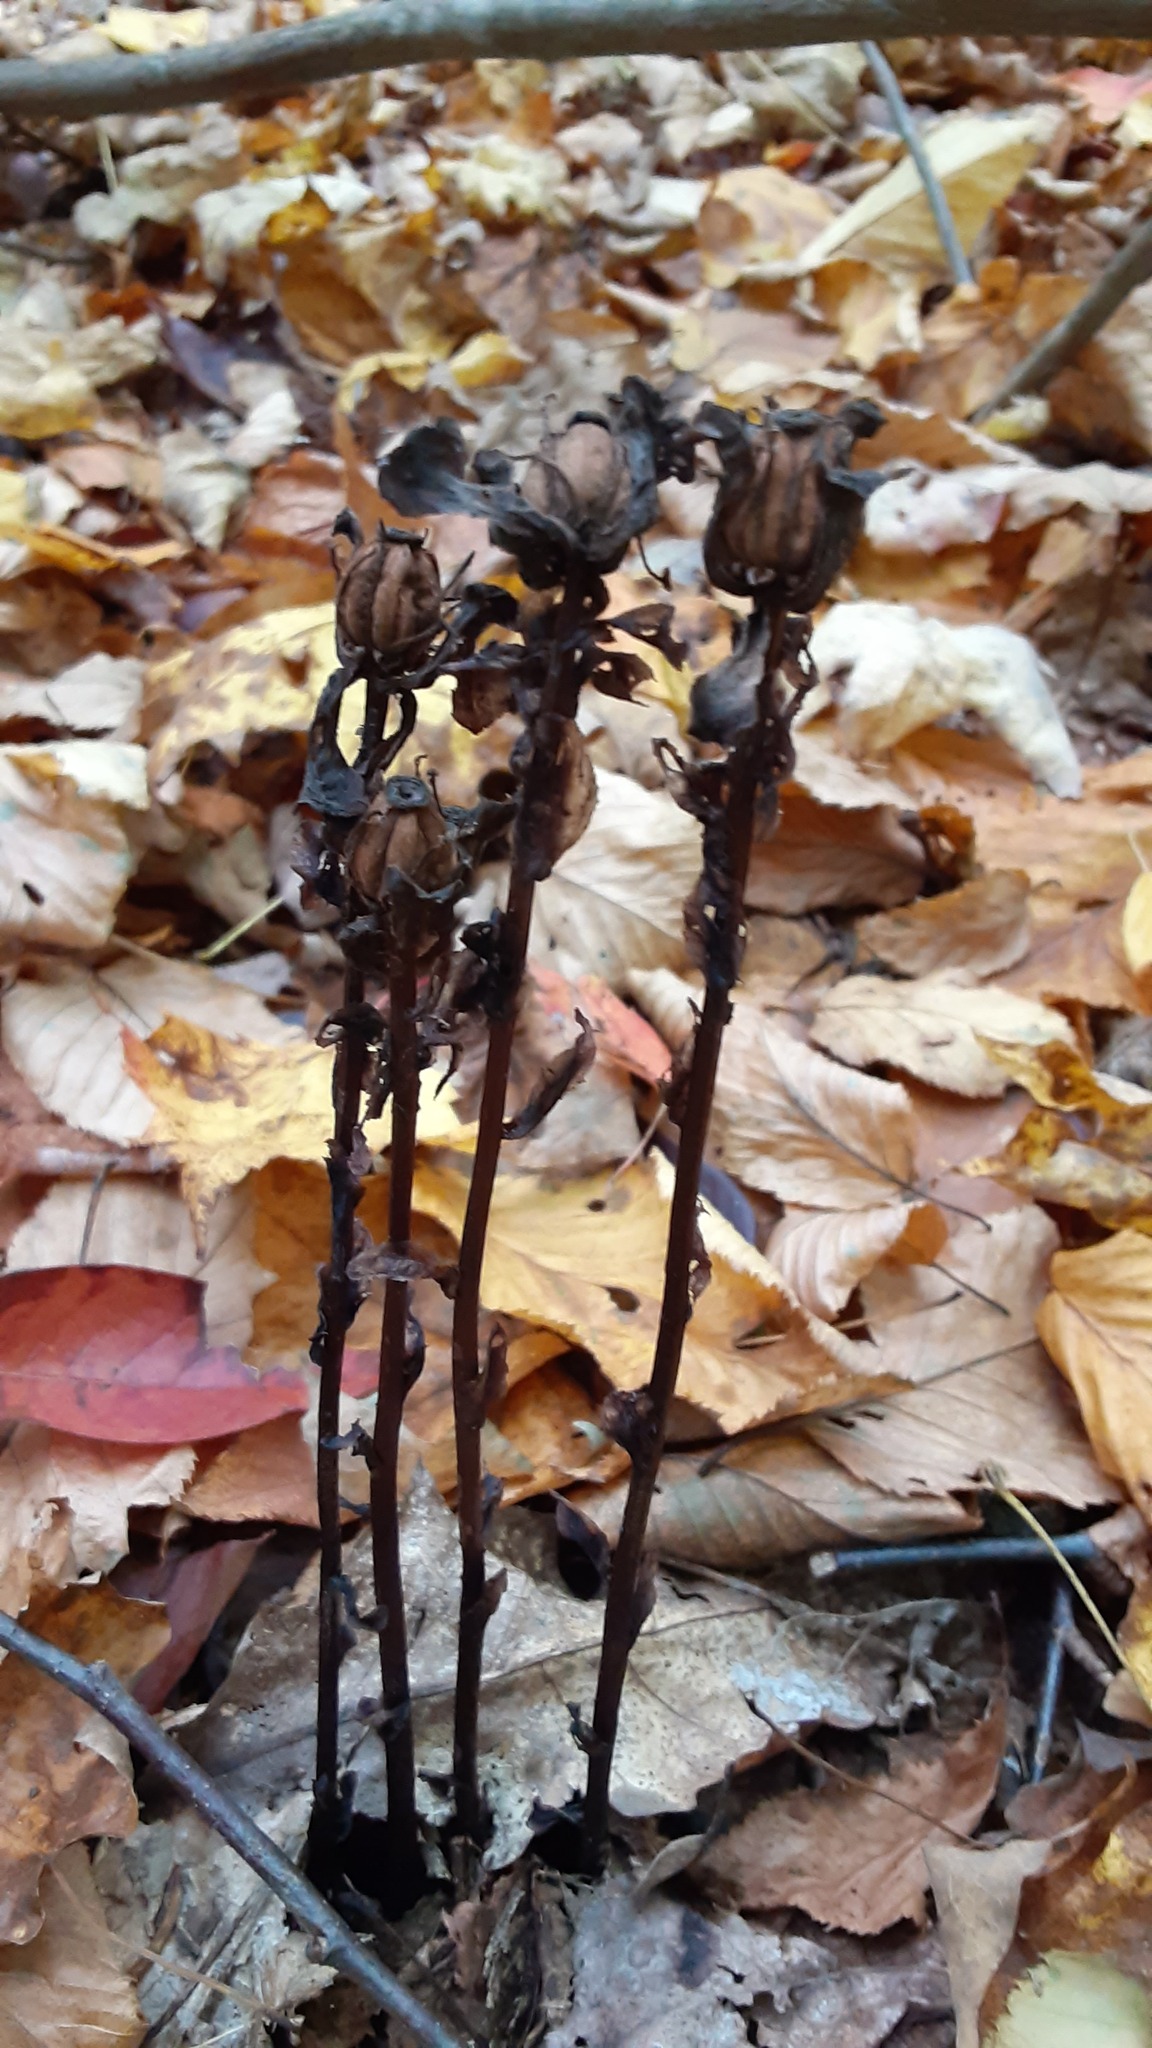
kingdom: Plantae
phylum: Tracheophyta
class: Magnoliopsida
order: Ericales
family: Ericaceae
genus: Monotropa
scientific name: Monotropa uniflora
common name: Convulsion root
